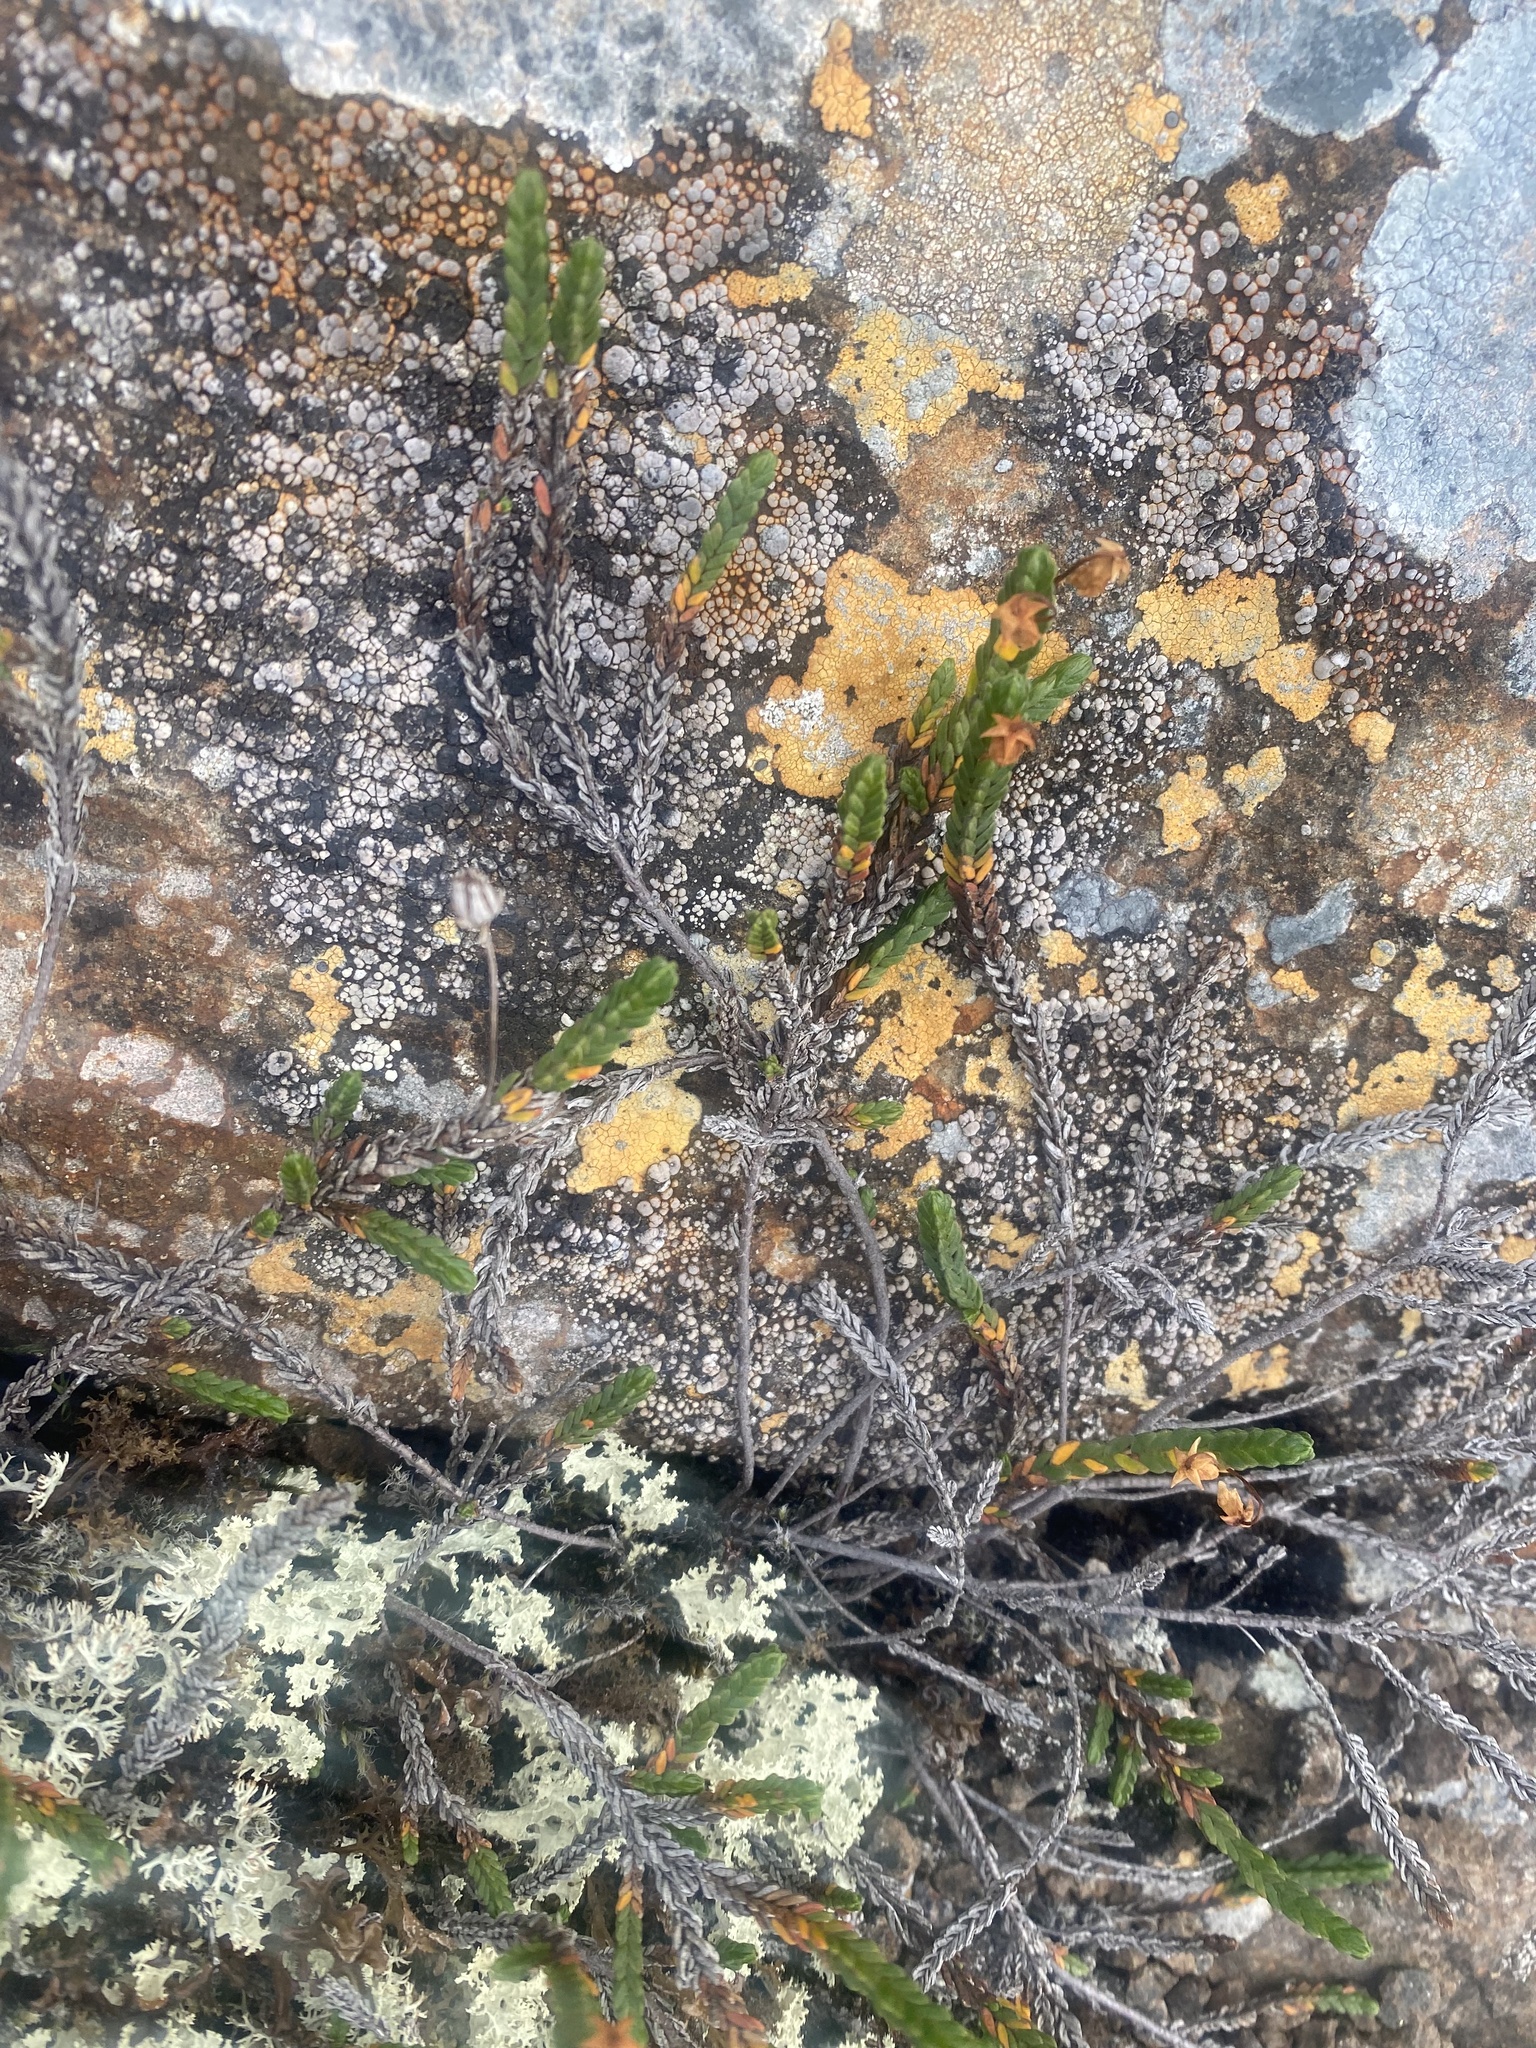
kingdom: Plantae
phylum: Tracheophyta
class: Magnoliopsida
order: Ericales
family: Ericaceae
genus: Cassiope
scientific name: Cassiope tetragona
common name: Arctic bell heather
